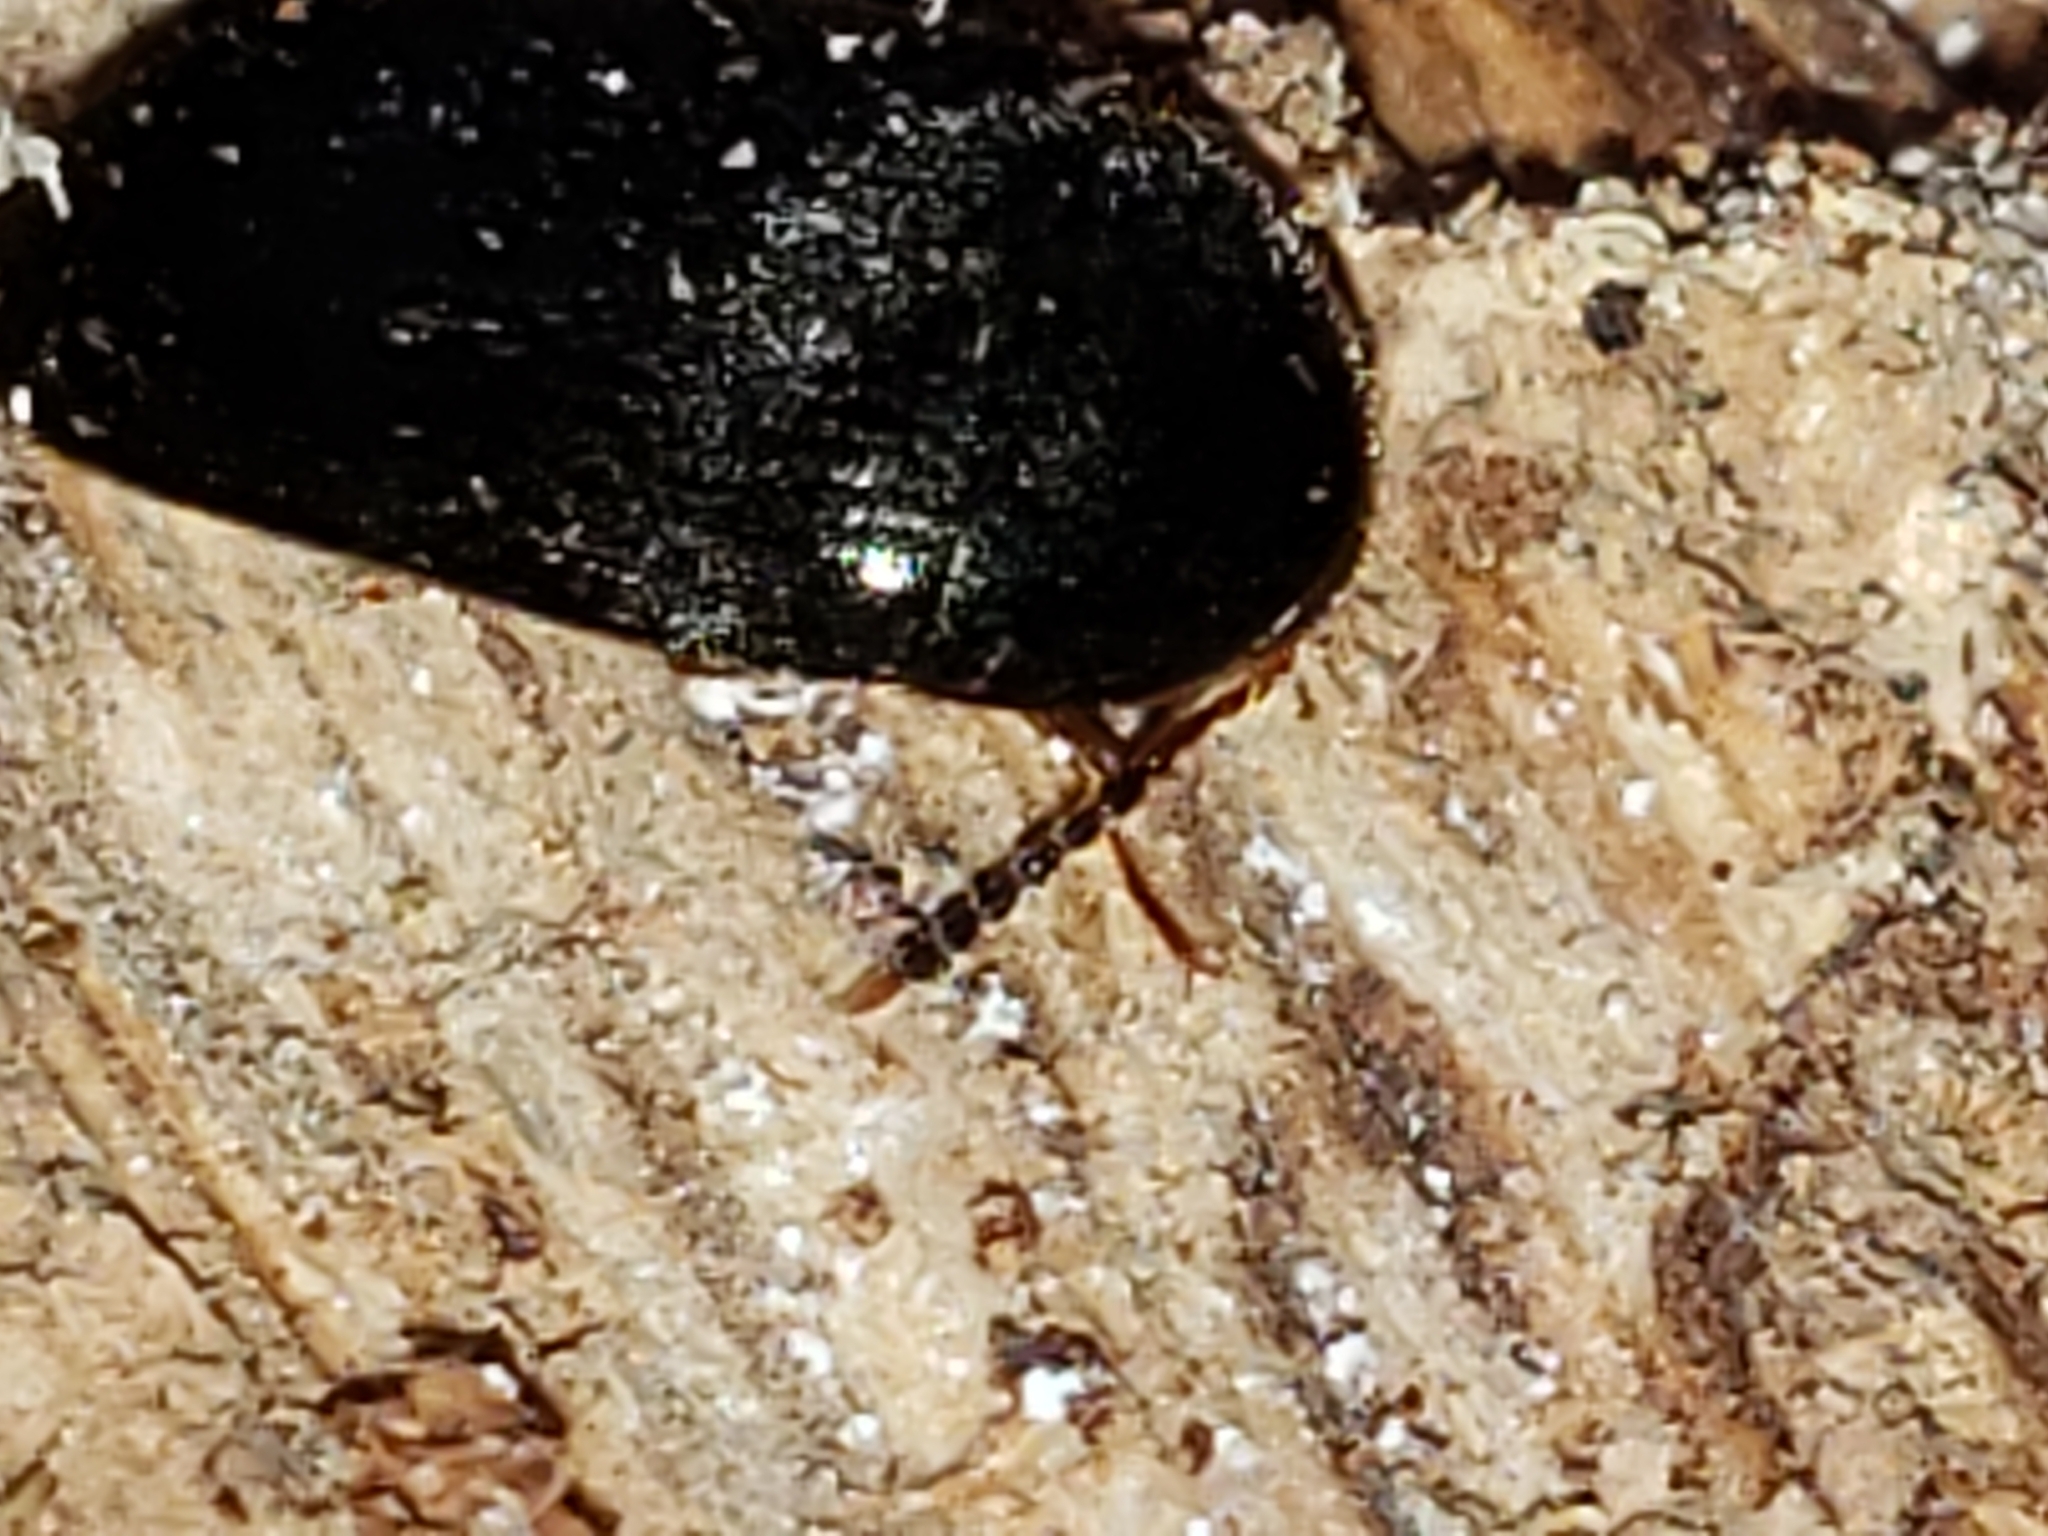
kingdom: Animalia
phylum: Arthropoda
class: Insecta
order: Coleoptera
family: Tetratomidae
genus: Eustrophopsis
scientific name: Eustrophopsis bicolor
